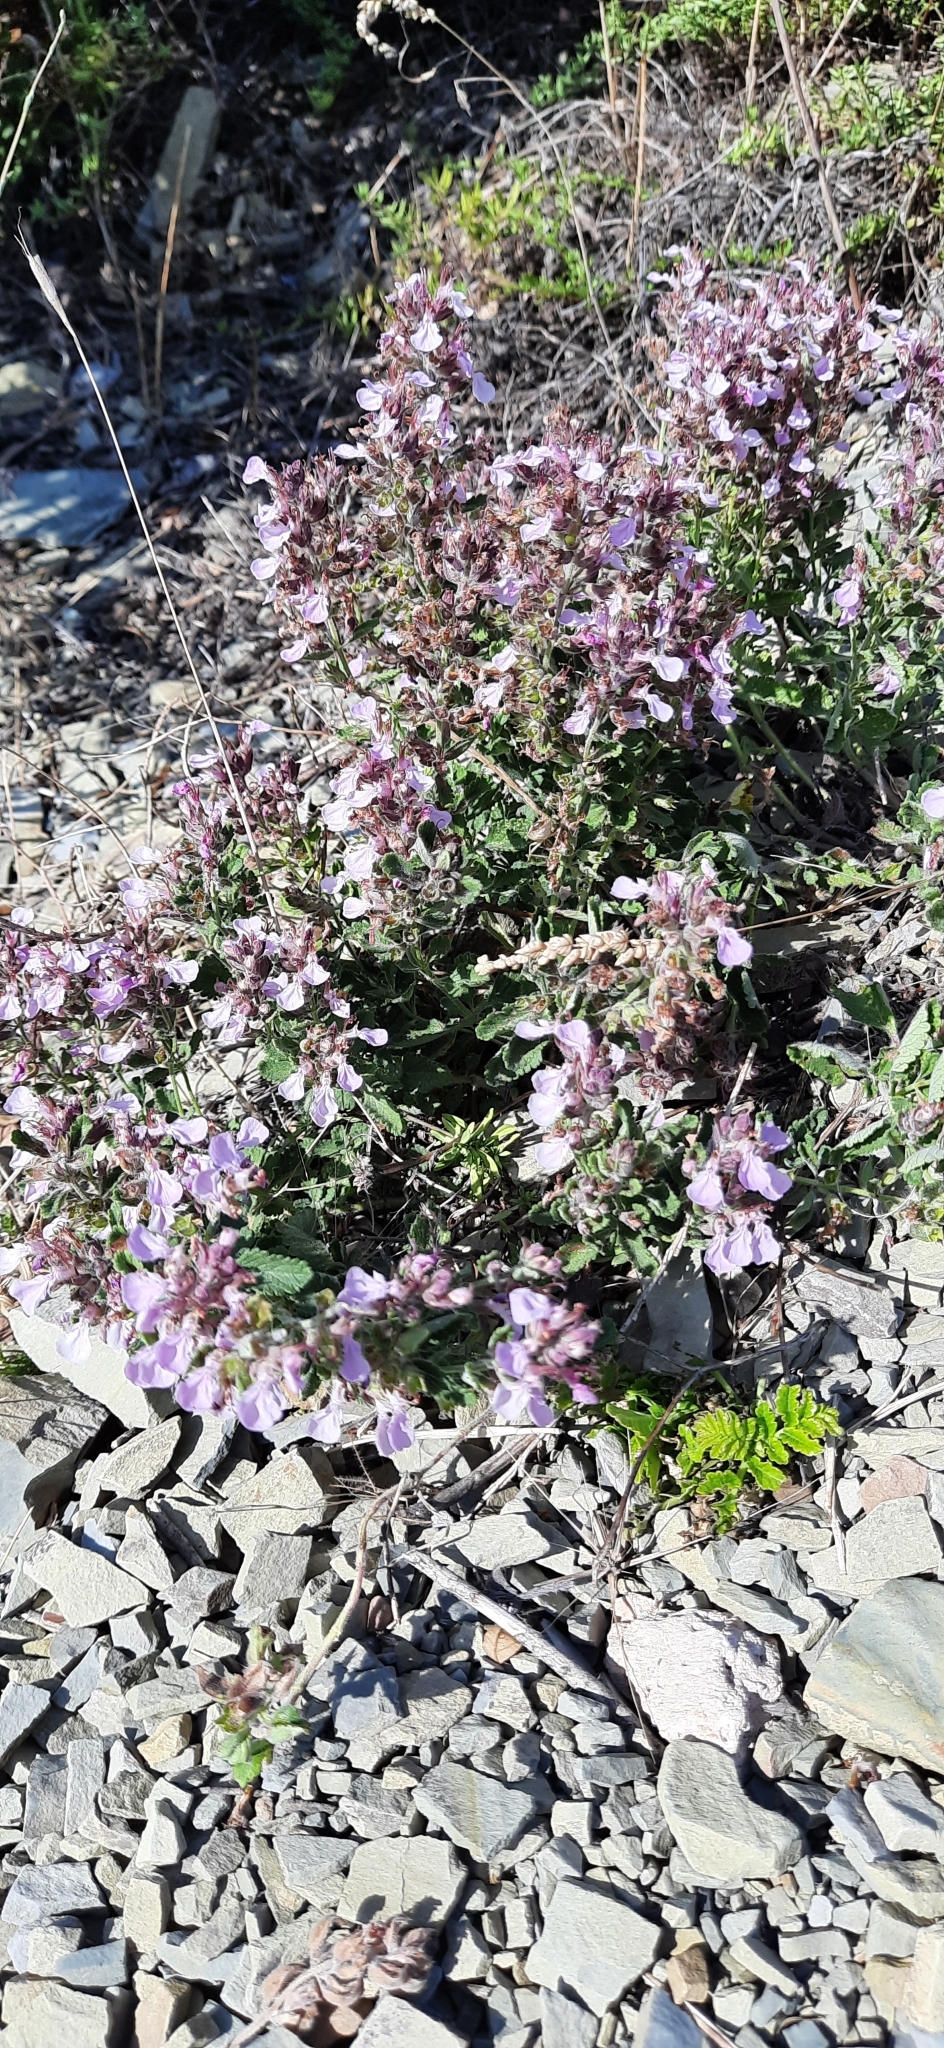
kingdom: Plantae
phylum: Tracheophyta
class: Magnoliopsida
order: Lamiales
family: Lamiaceae
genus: Teucrium
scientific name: Teucrium chamaedrys
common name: Wall germander
